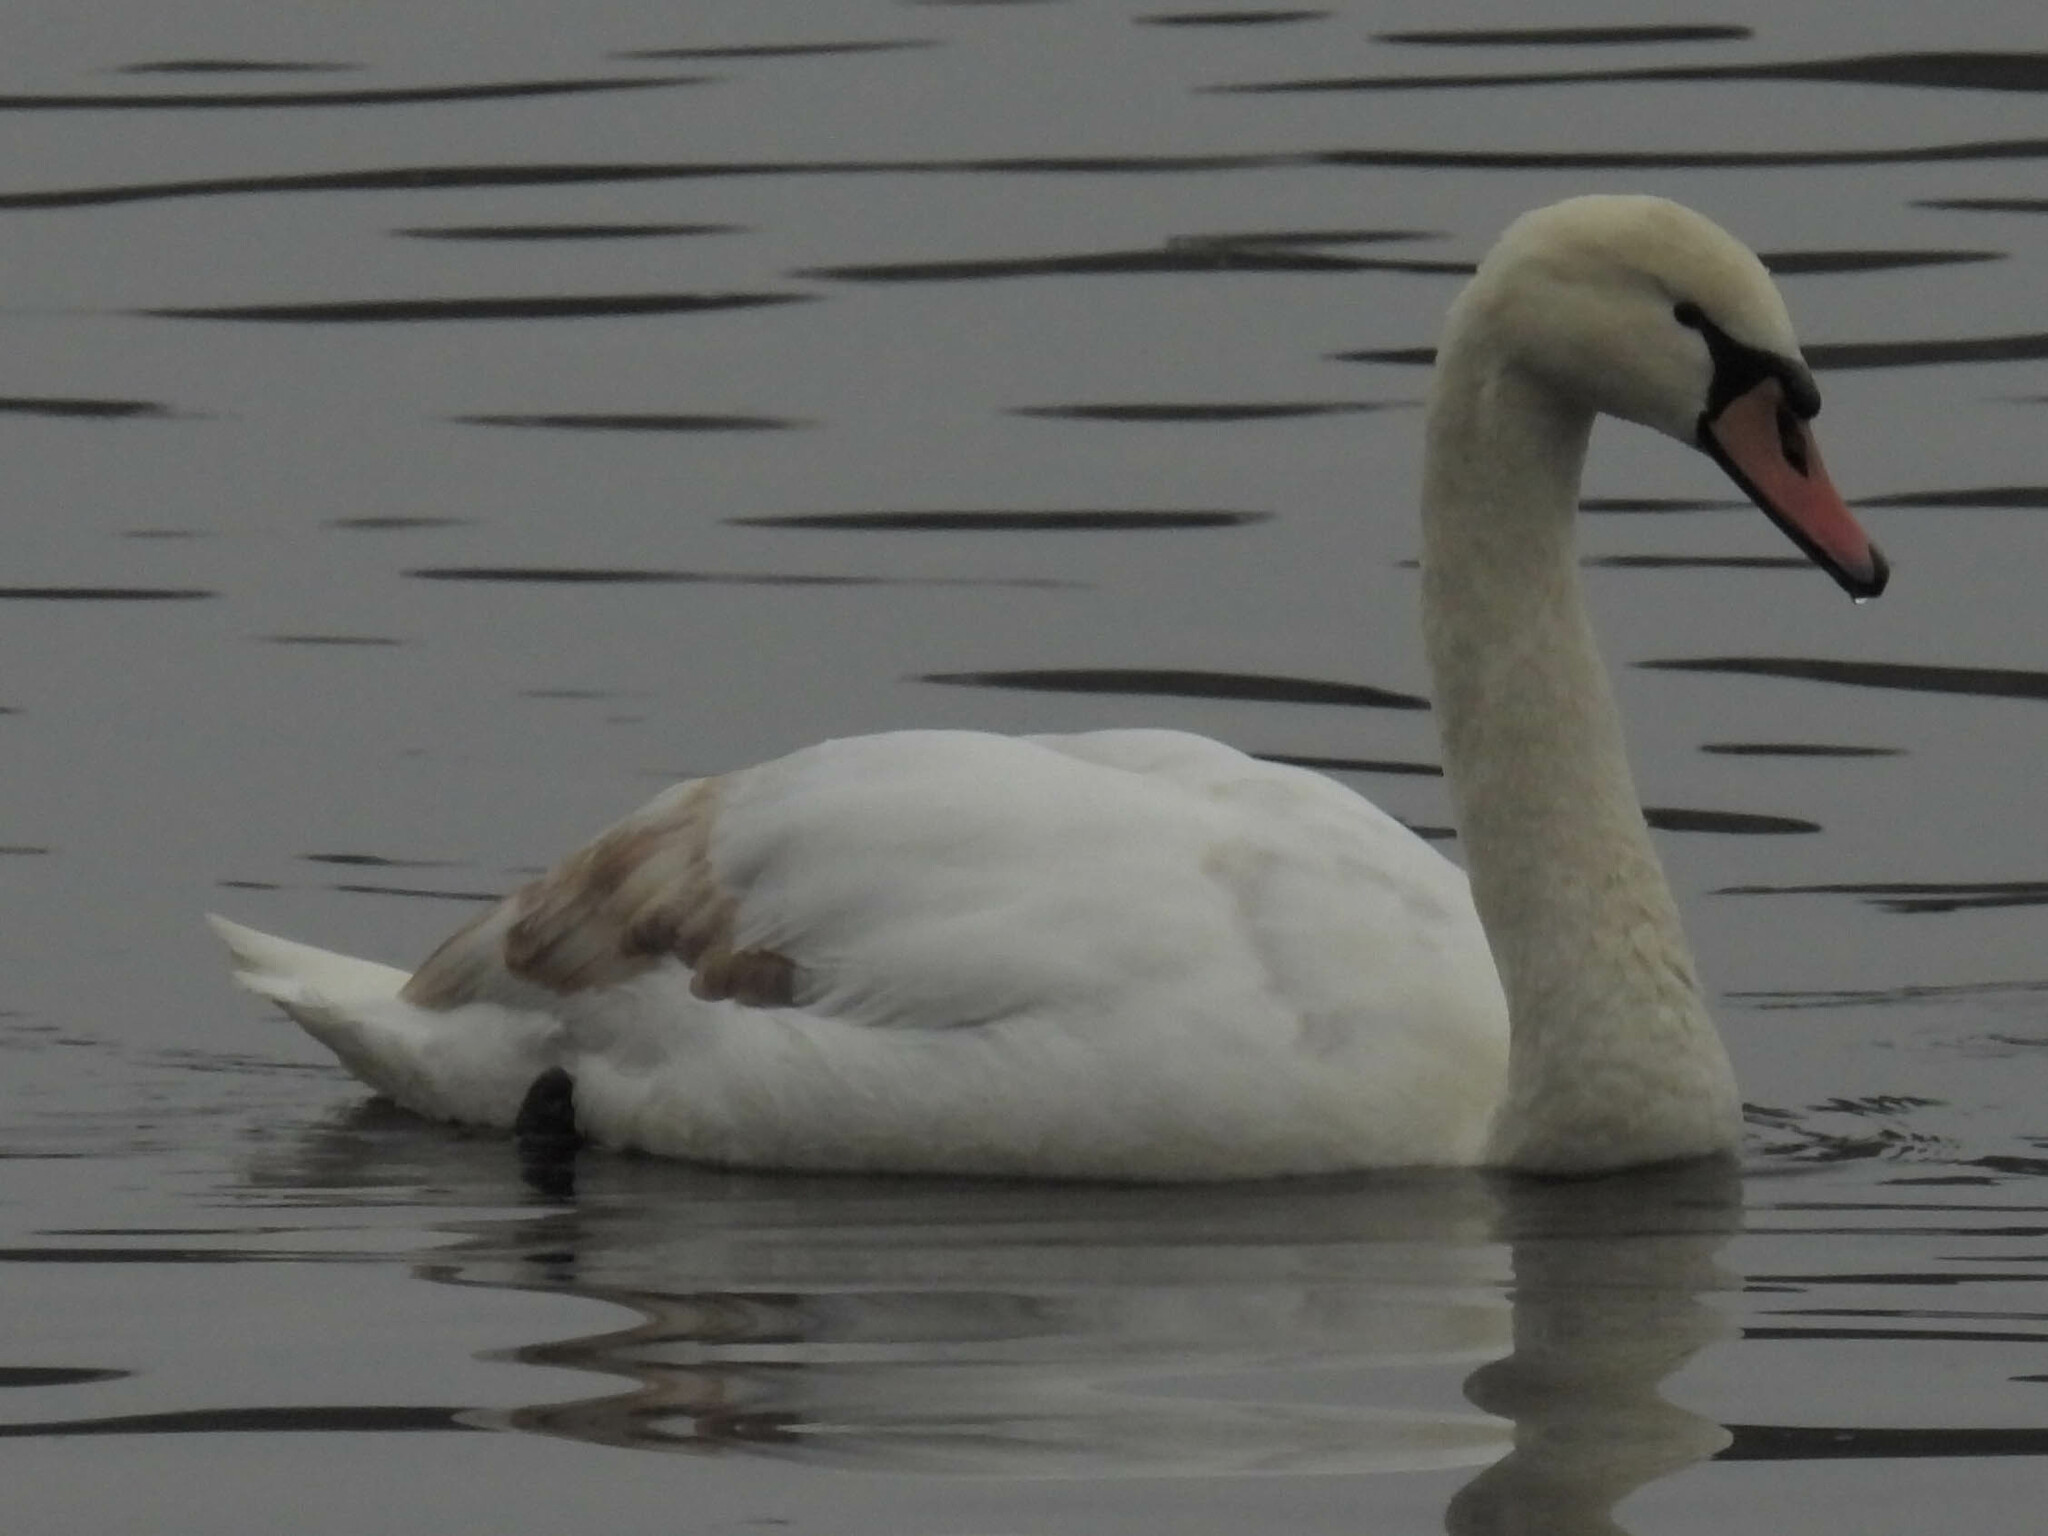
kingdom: Animalia
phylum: Chordata
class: Aves
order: Anseriformes
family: Anatidae
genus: Cygnus
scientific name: Cygnus olor
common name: Mute swan
